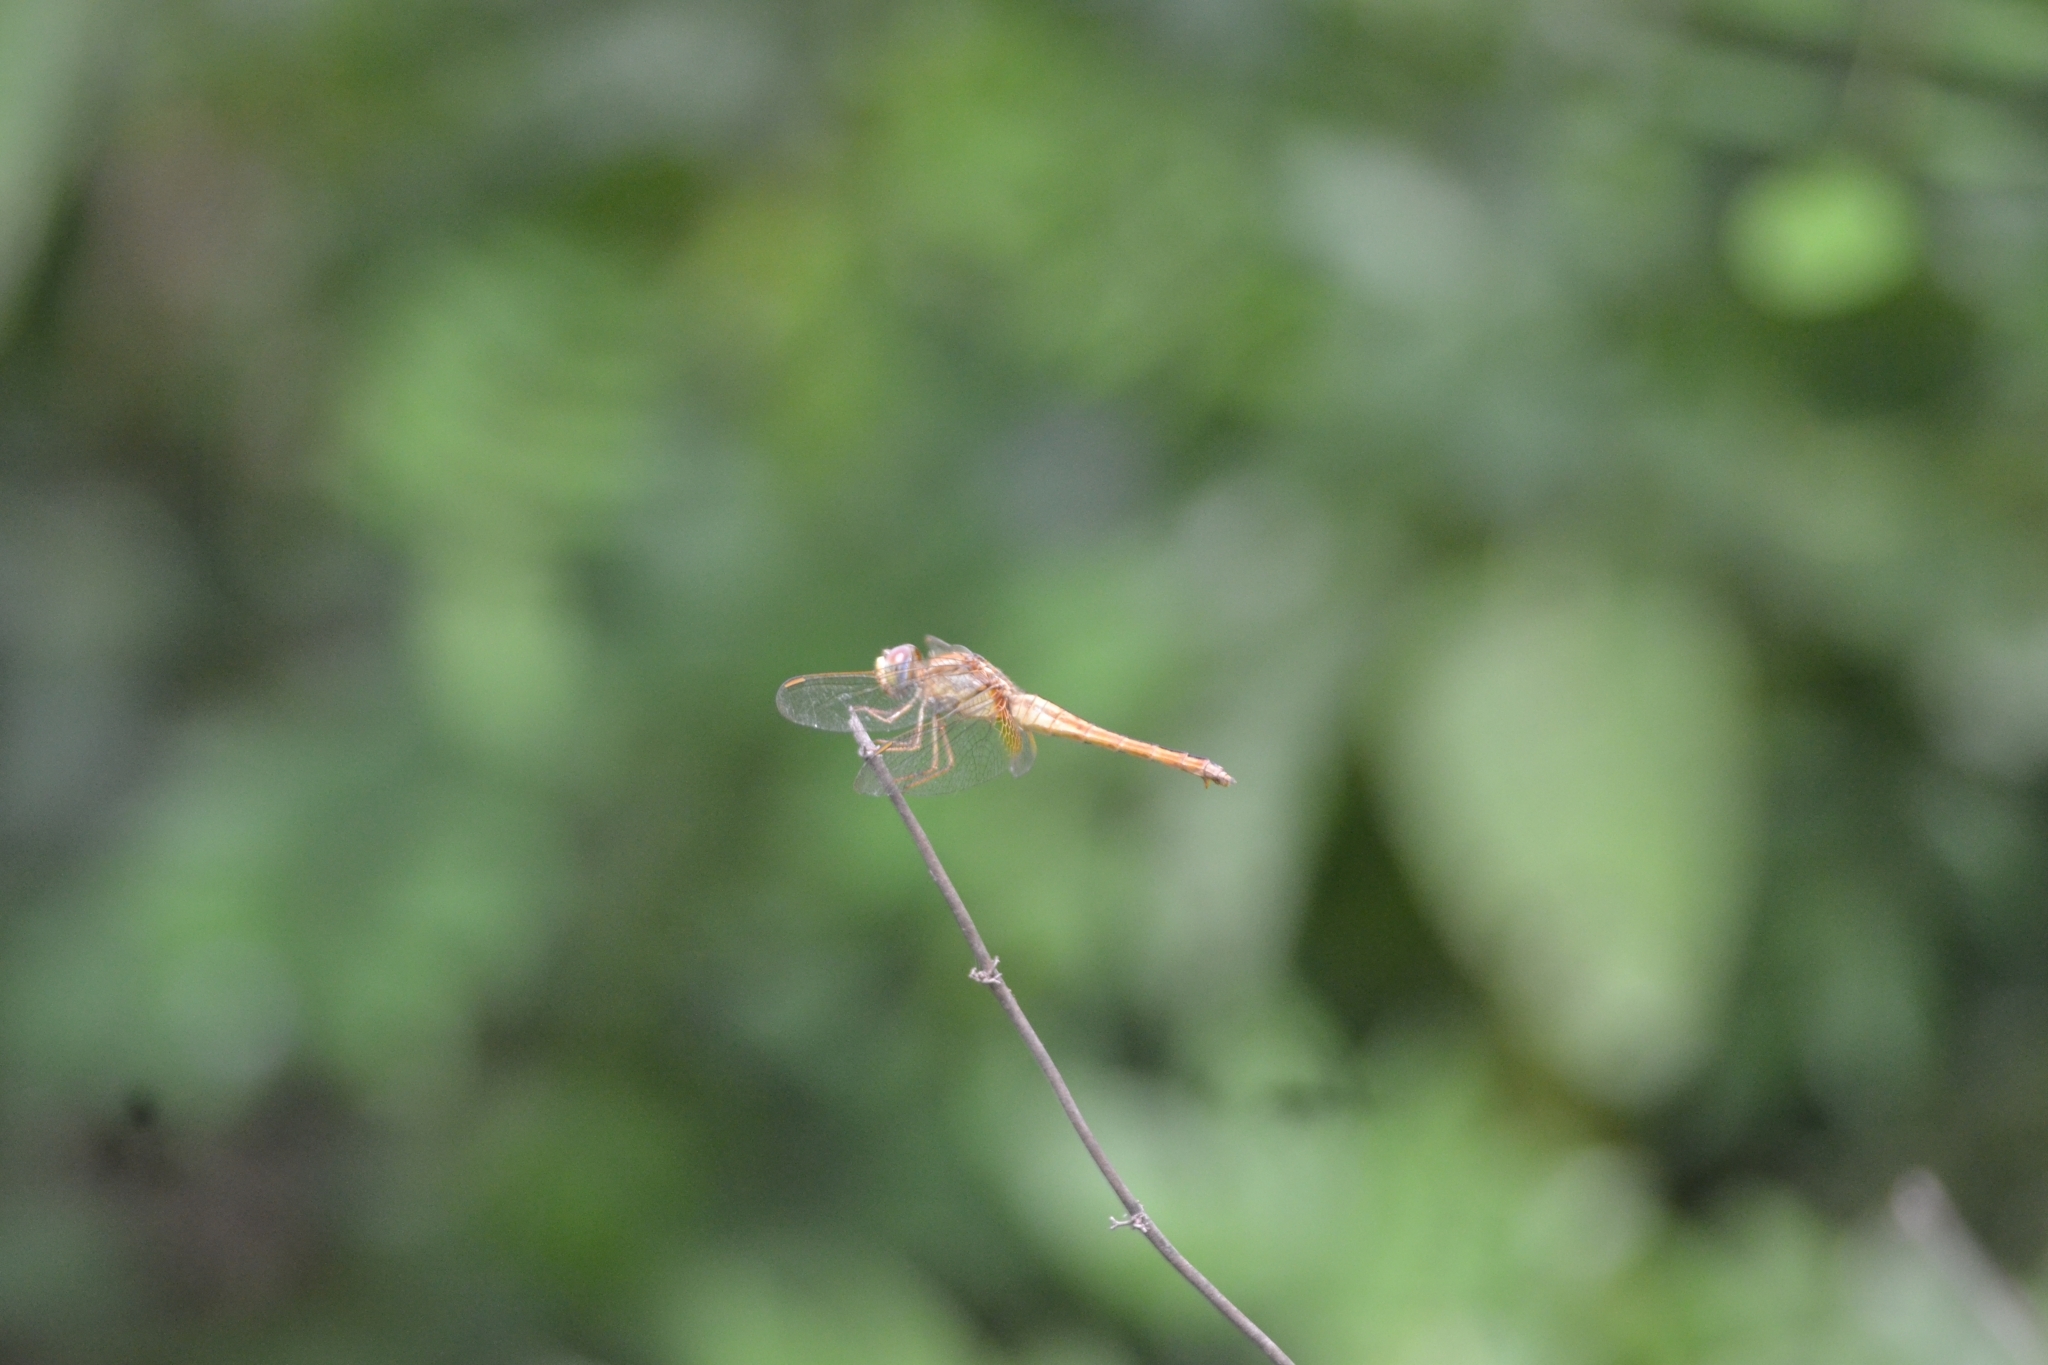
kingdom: Animalia
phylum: Arthropoda
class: Insecta
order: Odonata
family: Libellulidae
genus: Crocothemis
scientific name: Crocothemis servilia
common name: Scarlet skimmer
